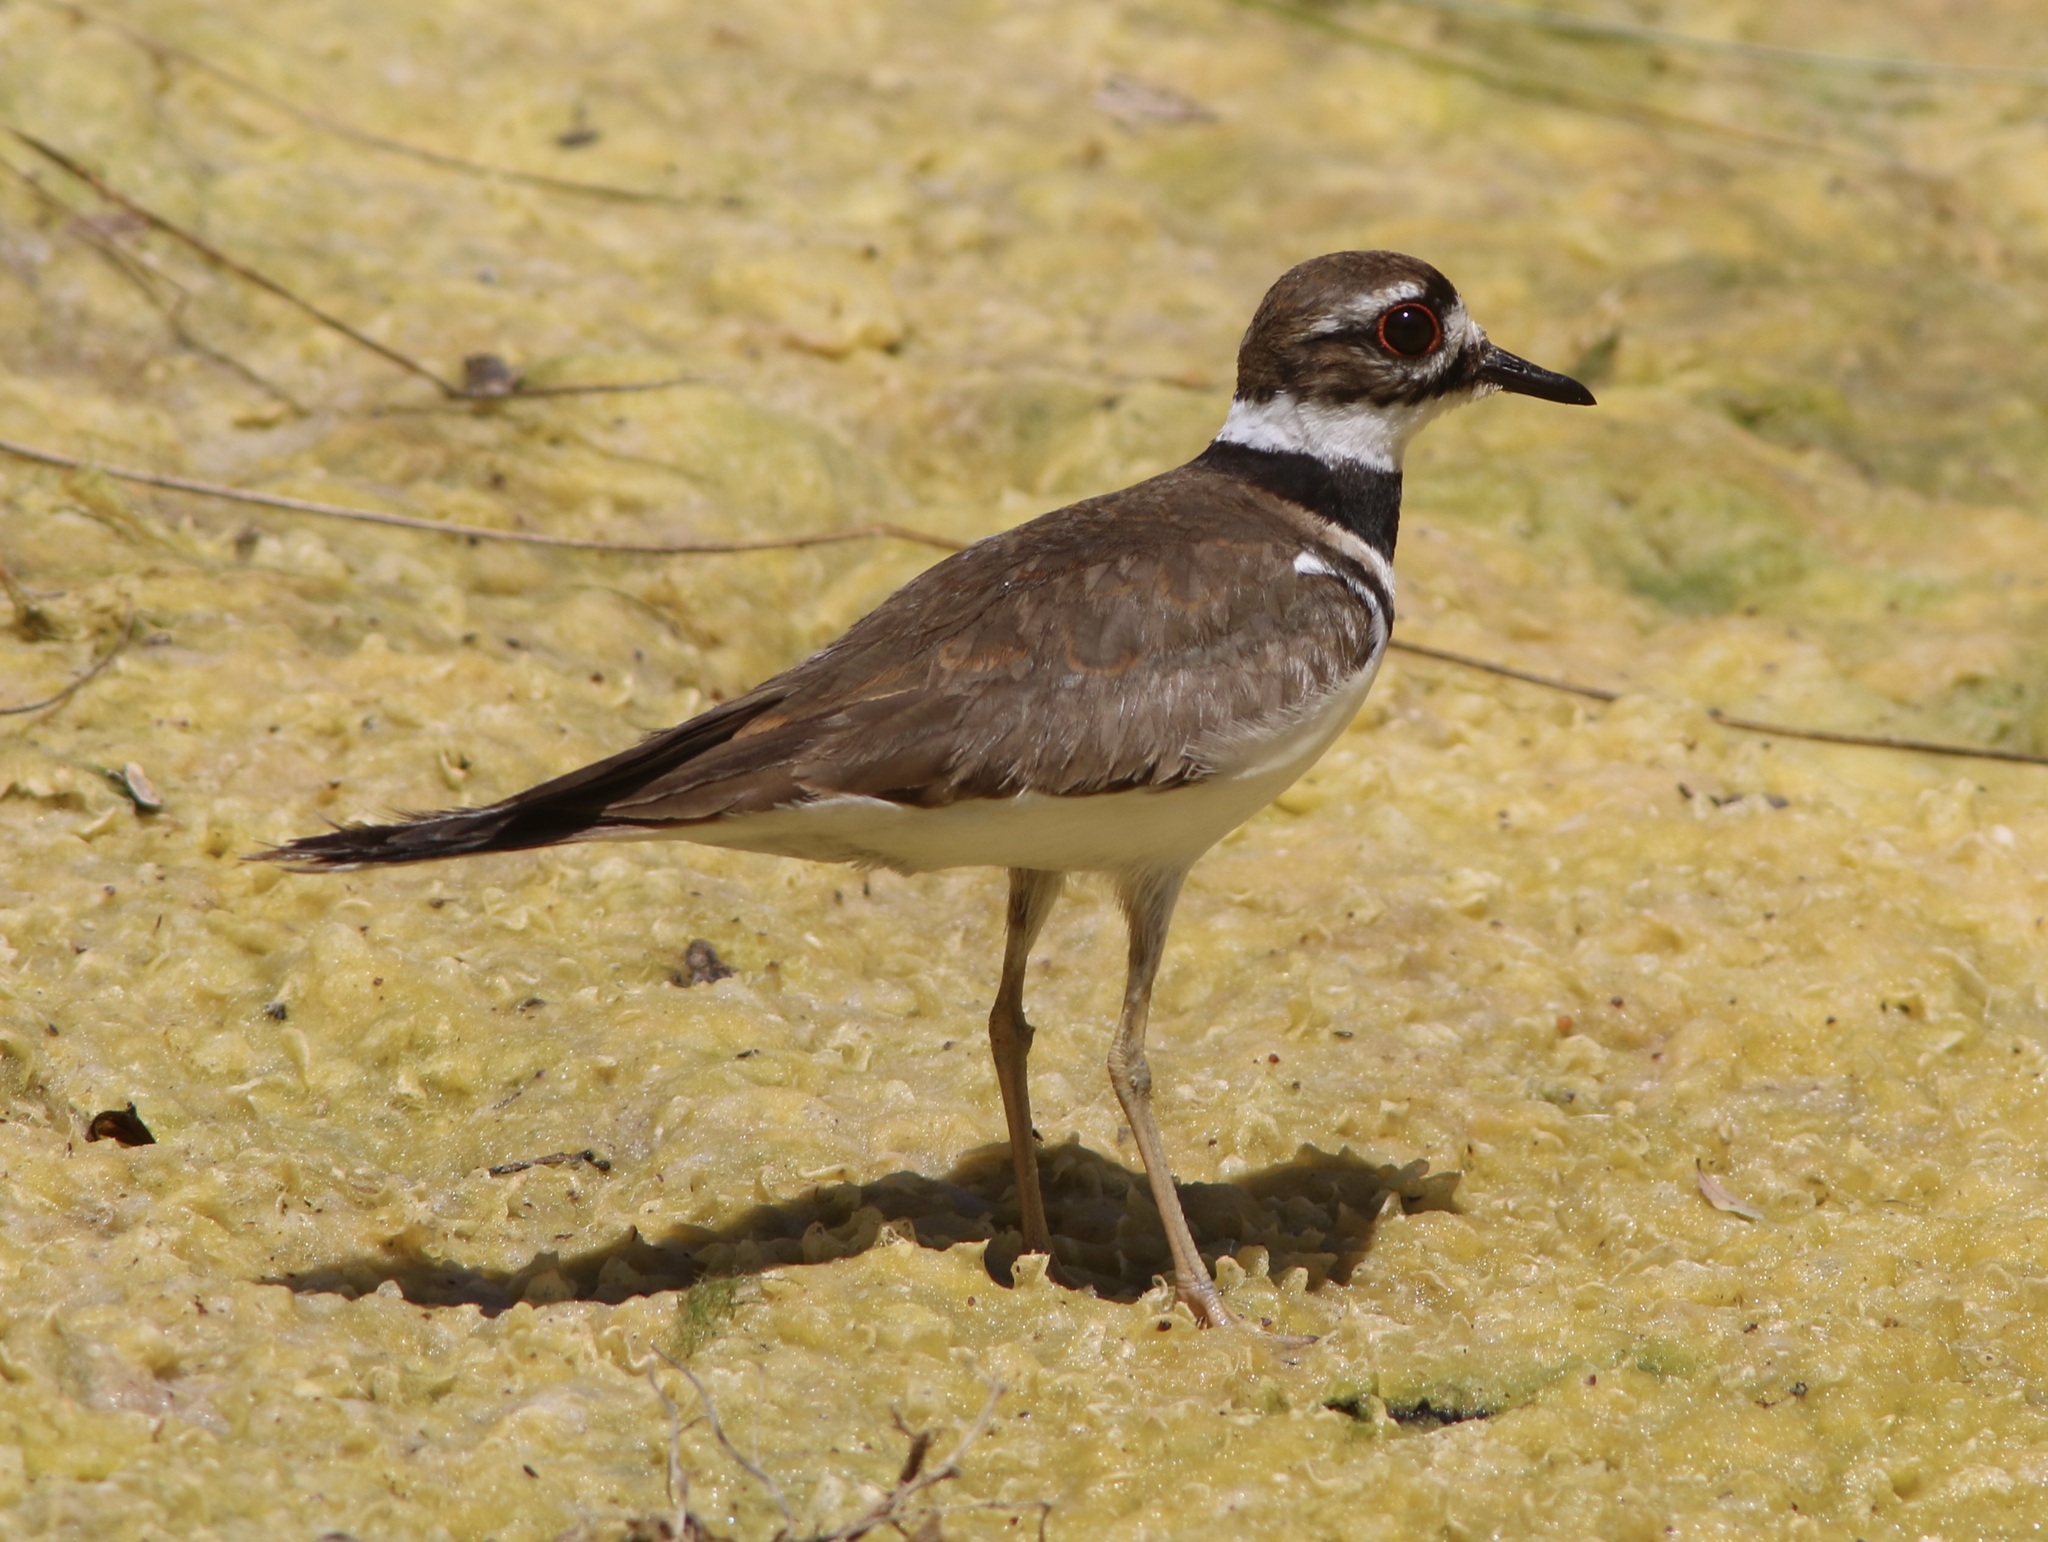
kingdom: Animalia
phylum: Chordata
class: Aves
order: Charadriiformes
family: Charadriidae
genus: Charadrius
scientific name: Charadrius vociferus
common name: Killdeer
